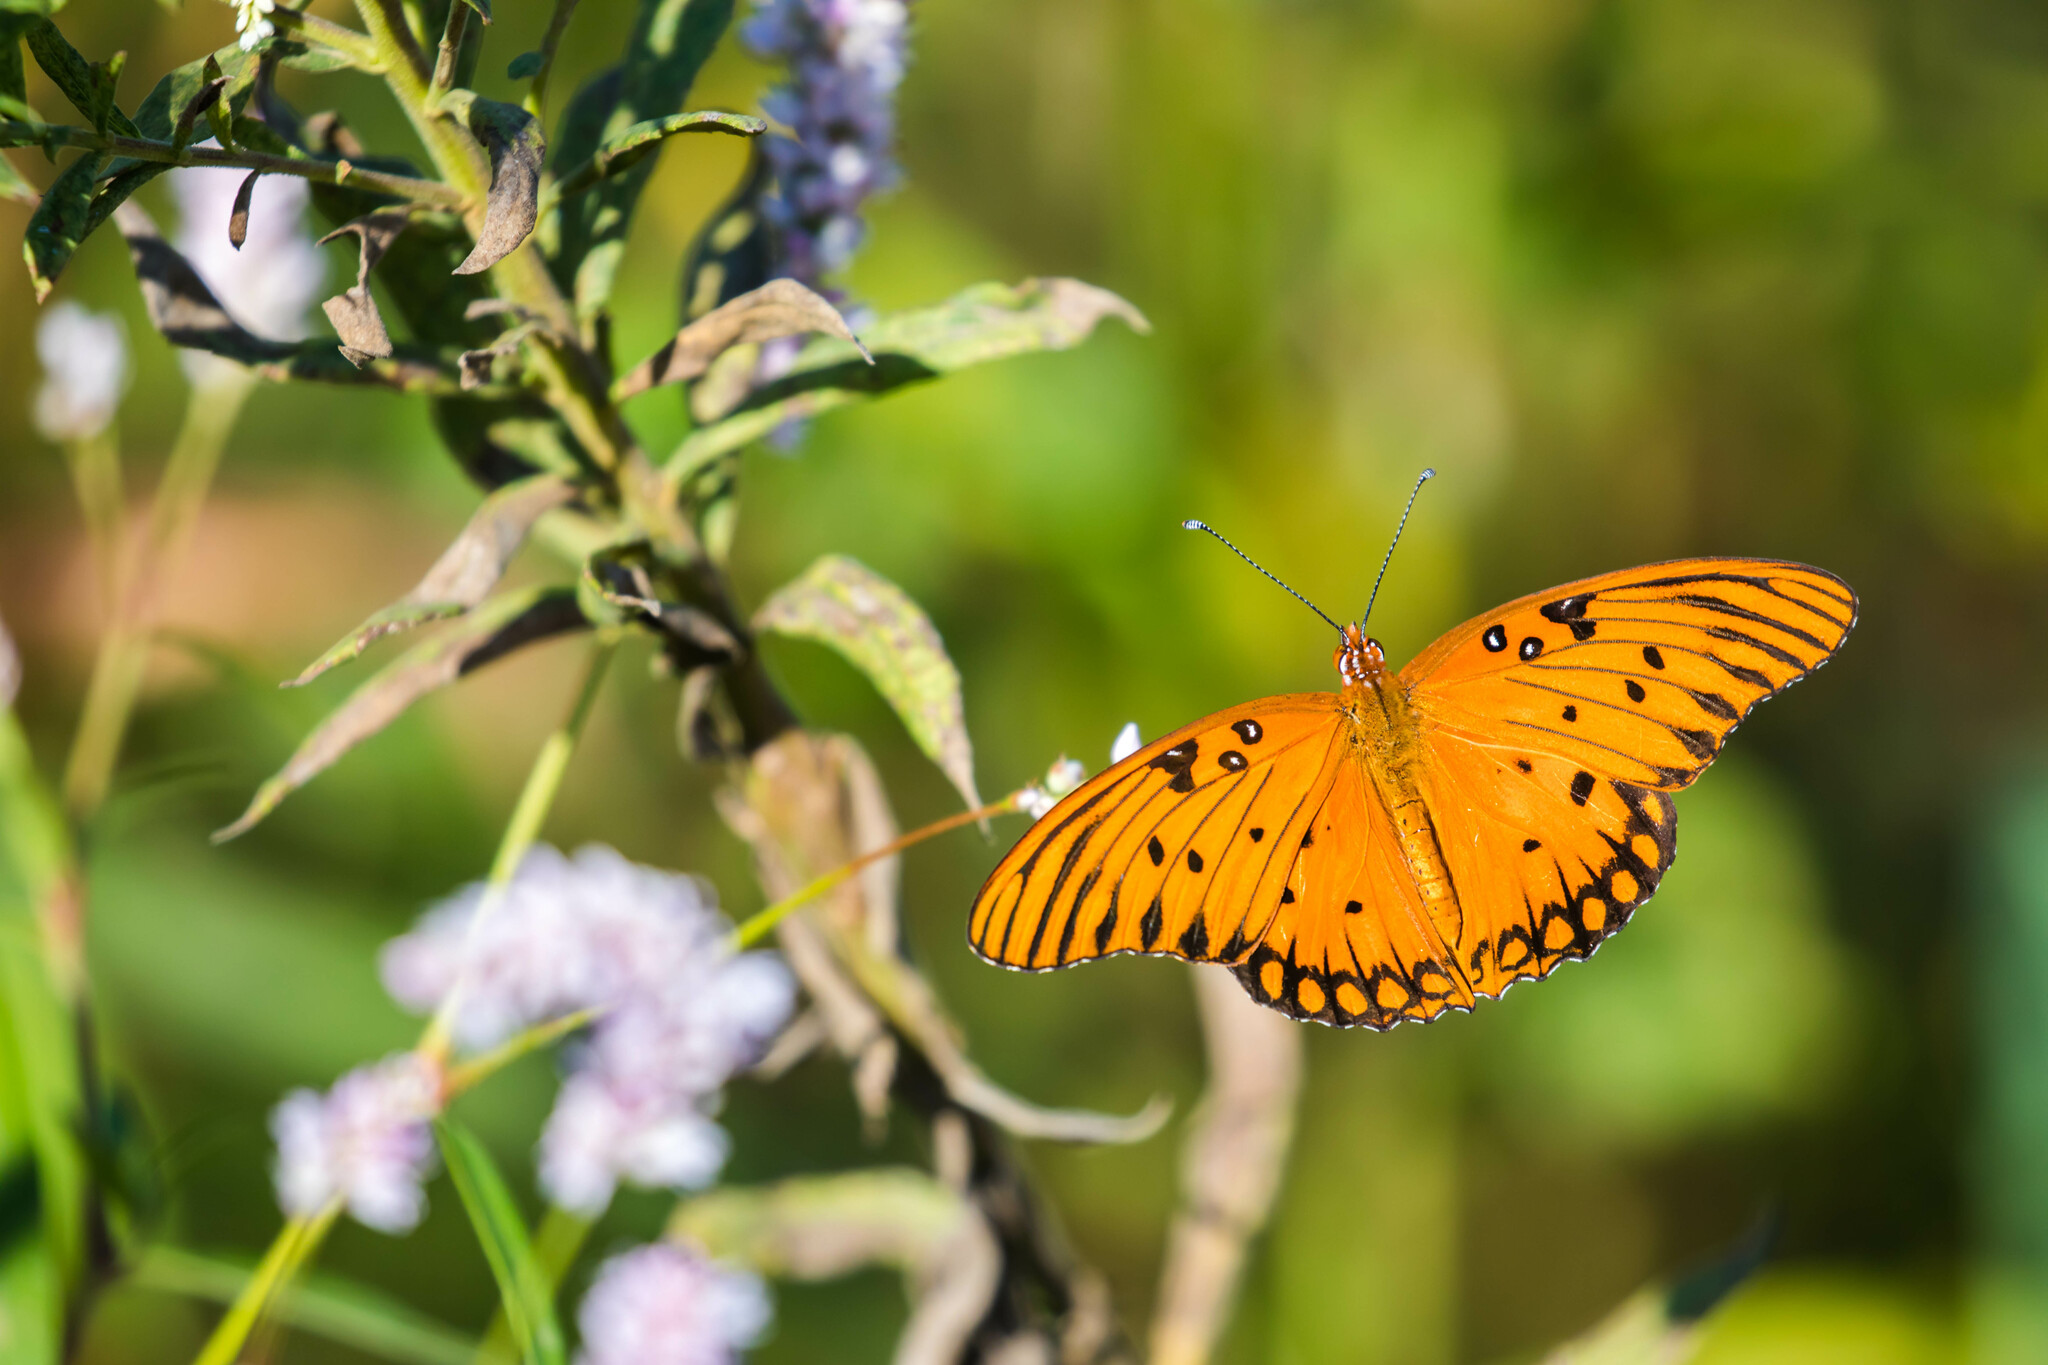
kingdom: Animalia
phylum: Arthropoda
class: Insecta
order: Lepidoptera
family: Nymphalidae
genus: Dione
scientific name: Dione vanillae
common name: Gulf fritillary
